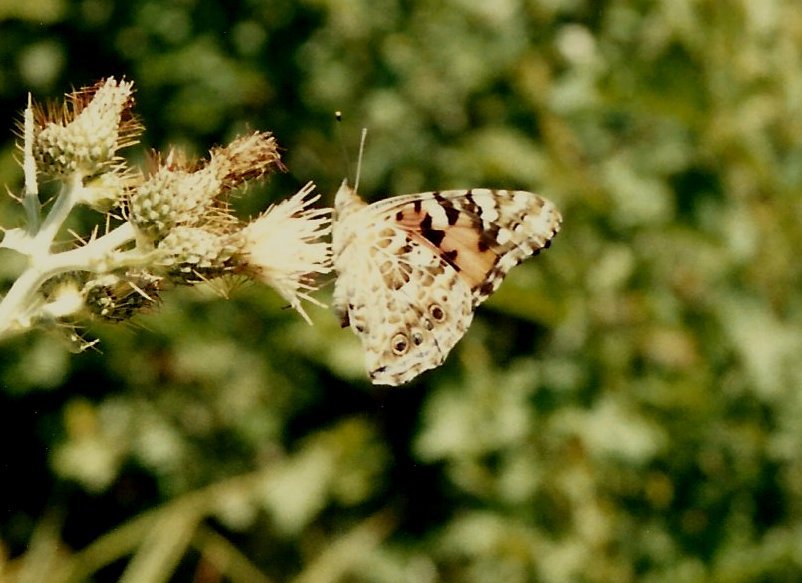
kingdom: Animalia
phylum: Arthropoda
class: Insecta
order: Lepidoptera
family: Nymphalidae
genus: Vanessa
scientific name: Vanessa cardui
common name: Painted lady
